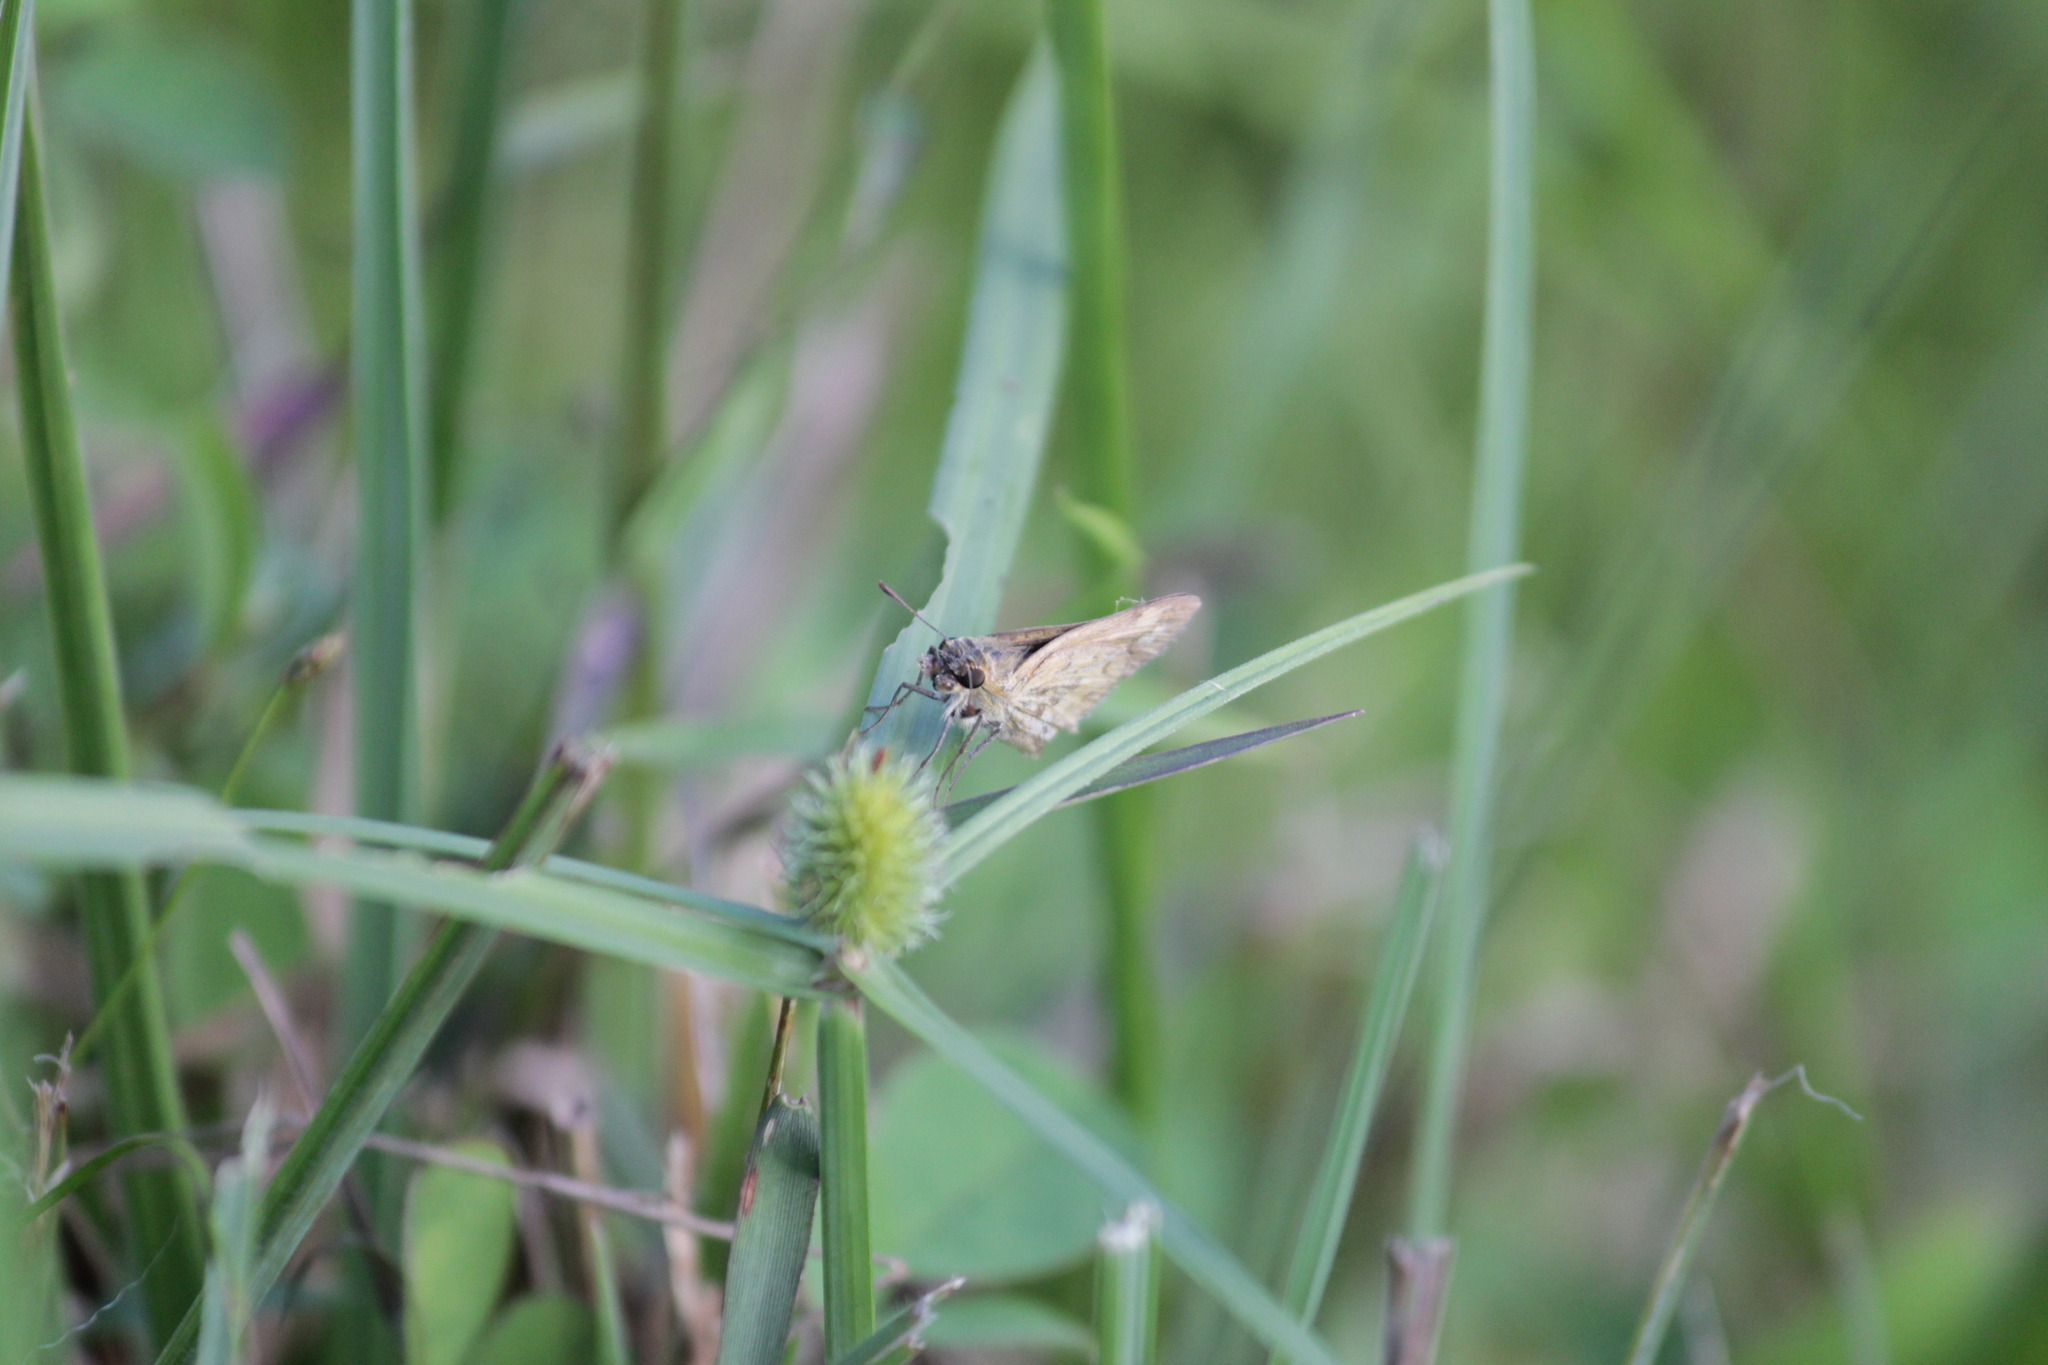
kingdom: Animalia
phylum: Arthropoda
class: Insecta
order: Hymenoptera
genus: Afrogenes
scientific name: Afrogenes
